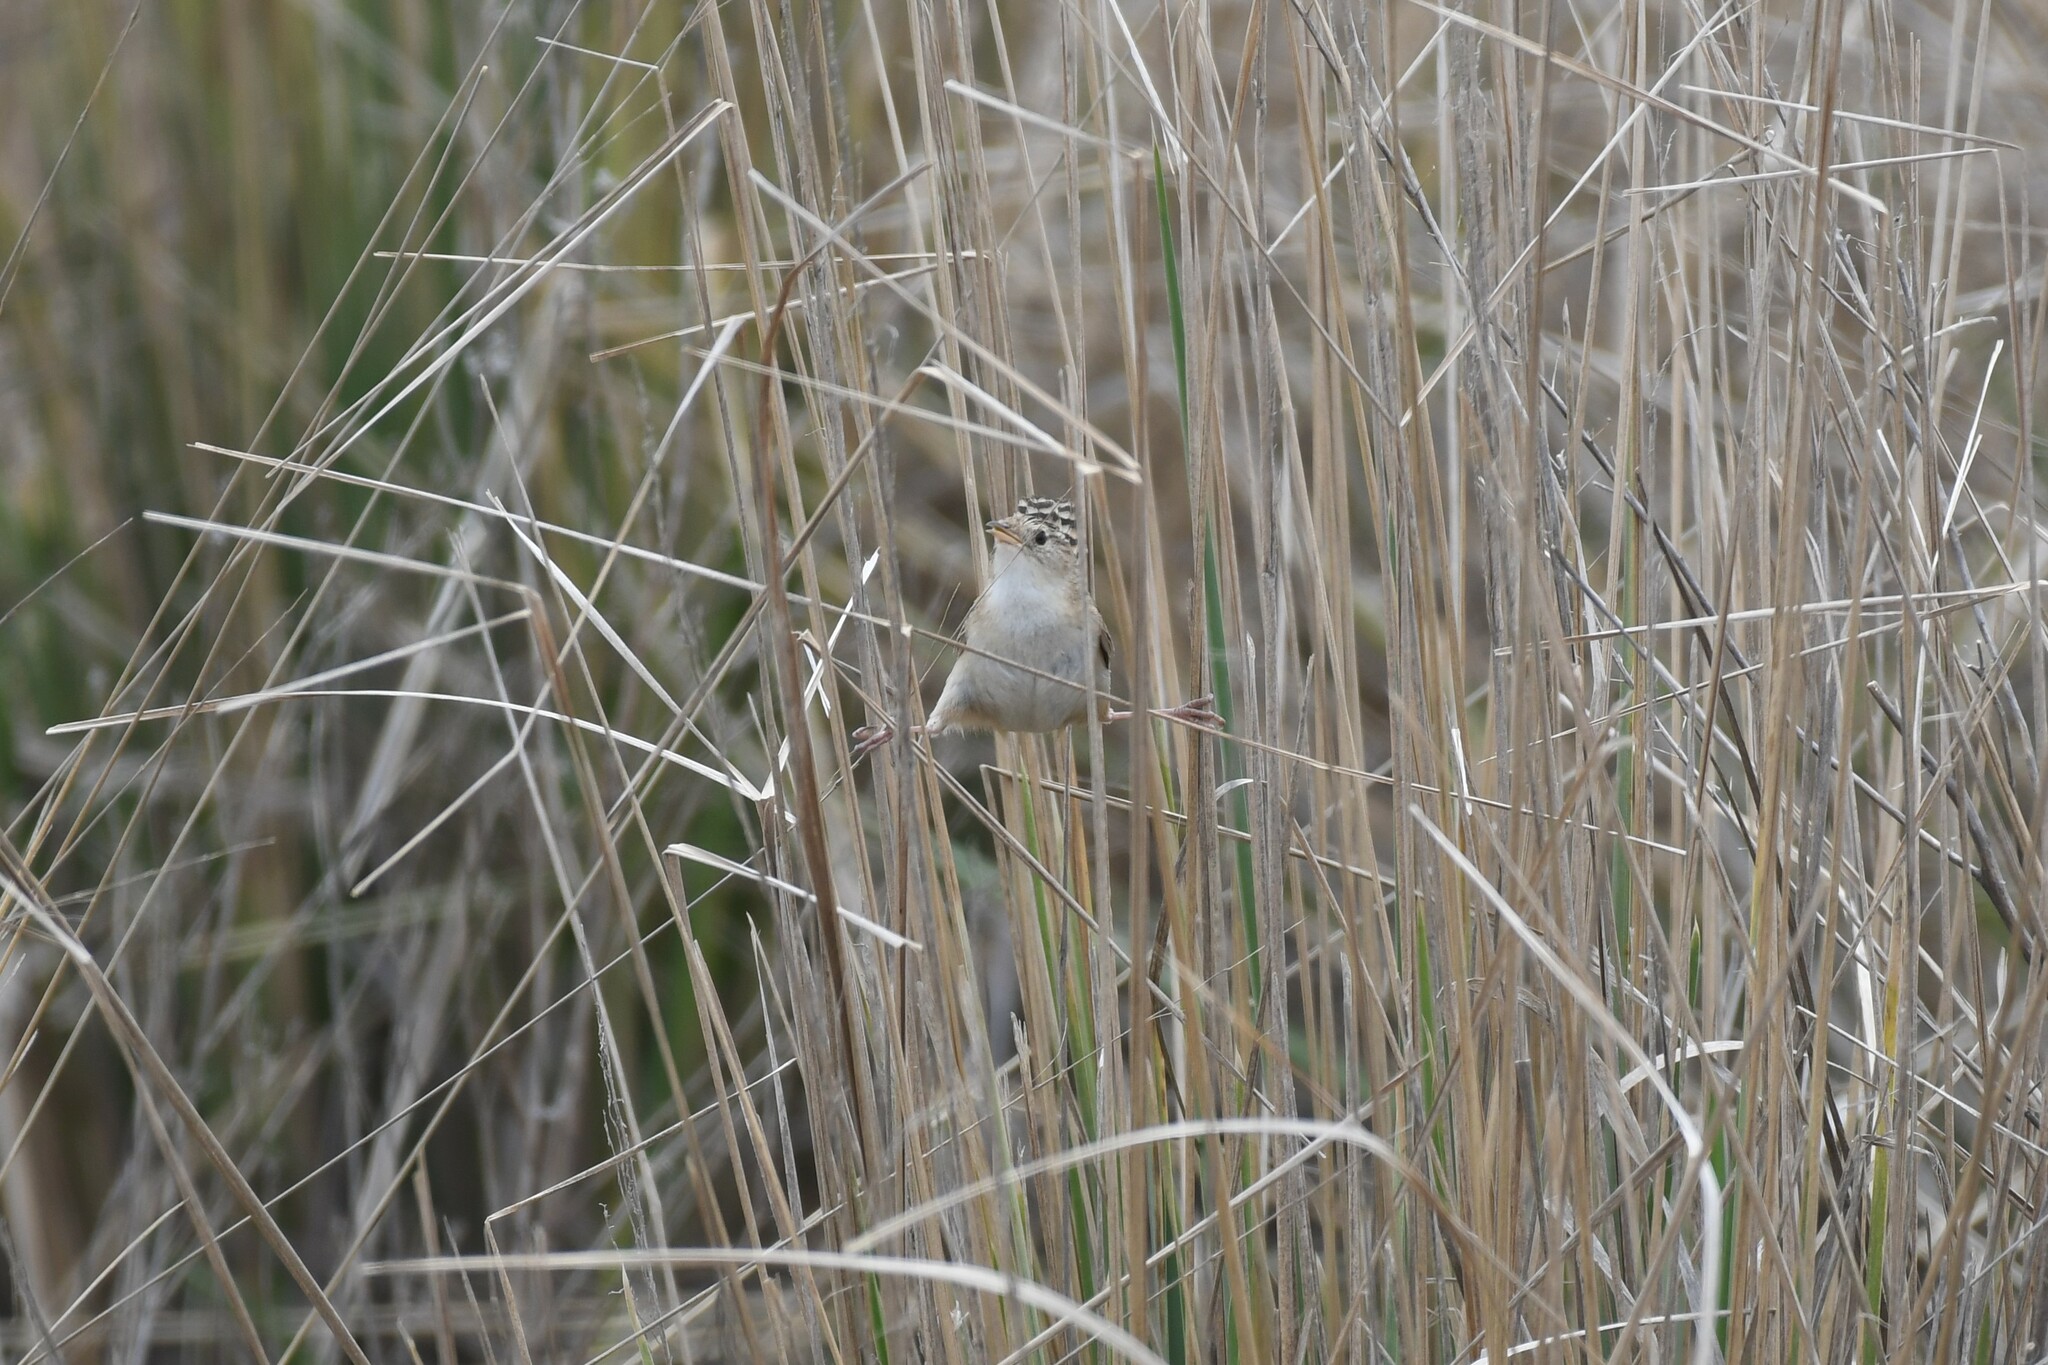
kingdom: Animalia
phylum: Chordata
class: Aves
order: Passeriformes
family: Troglodytidae
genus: Cistothorus
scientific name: Cistothorus platensis
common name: Sedge wren
